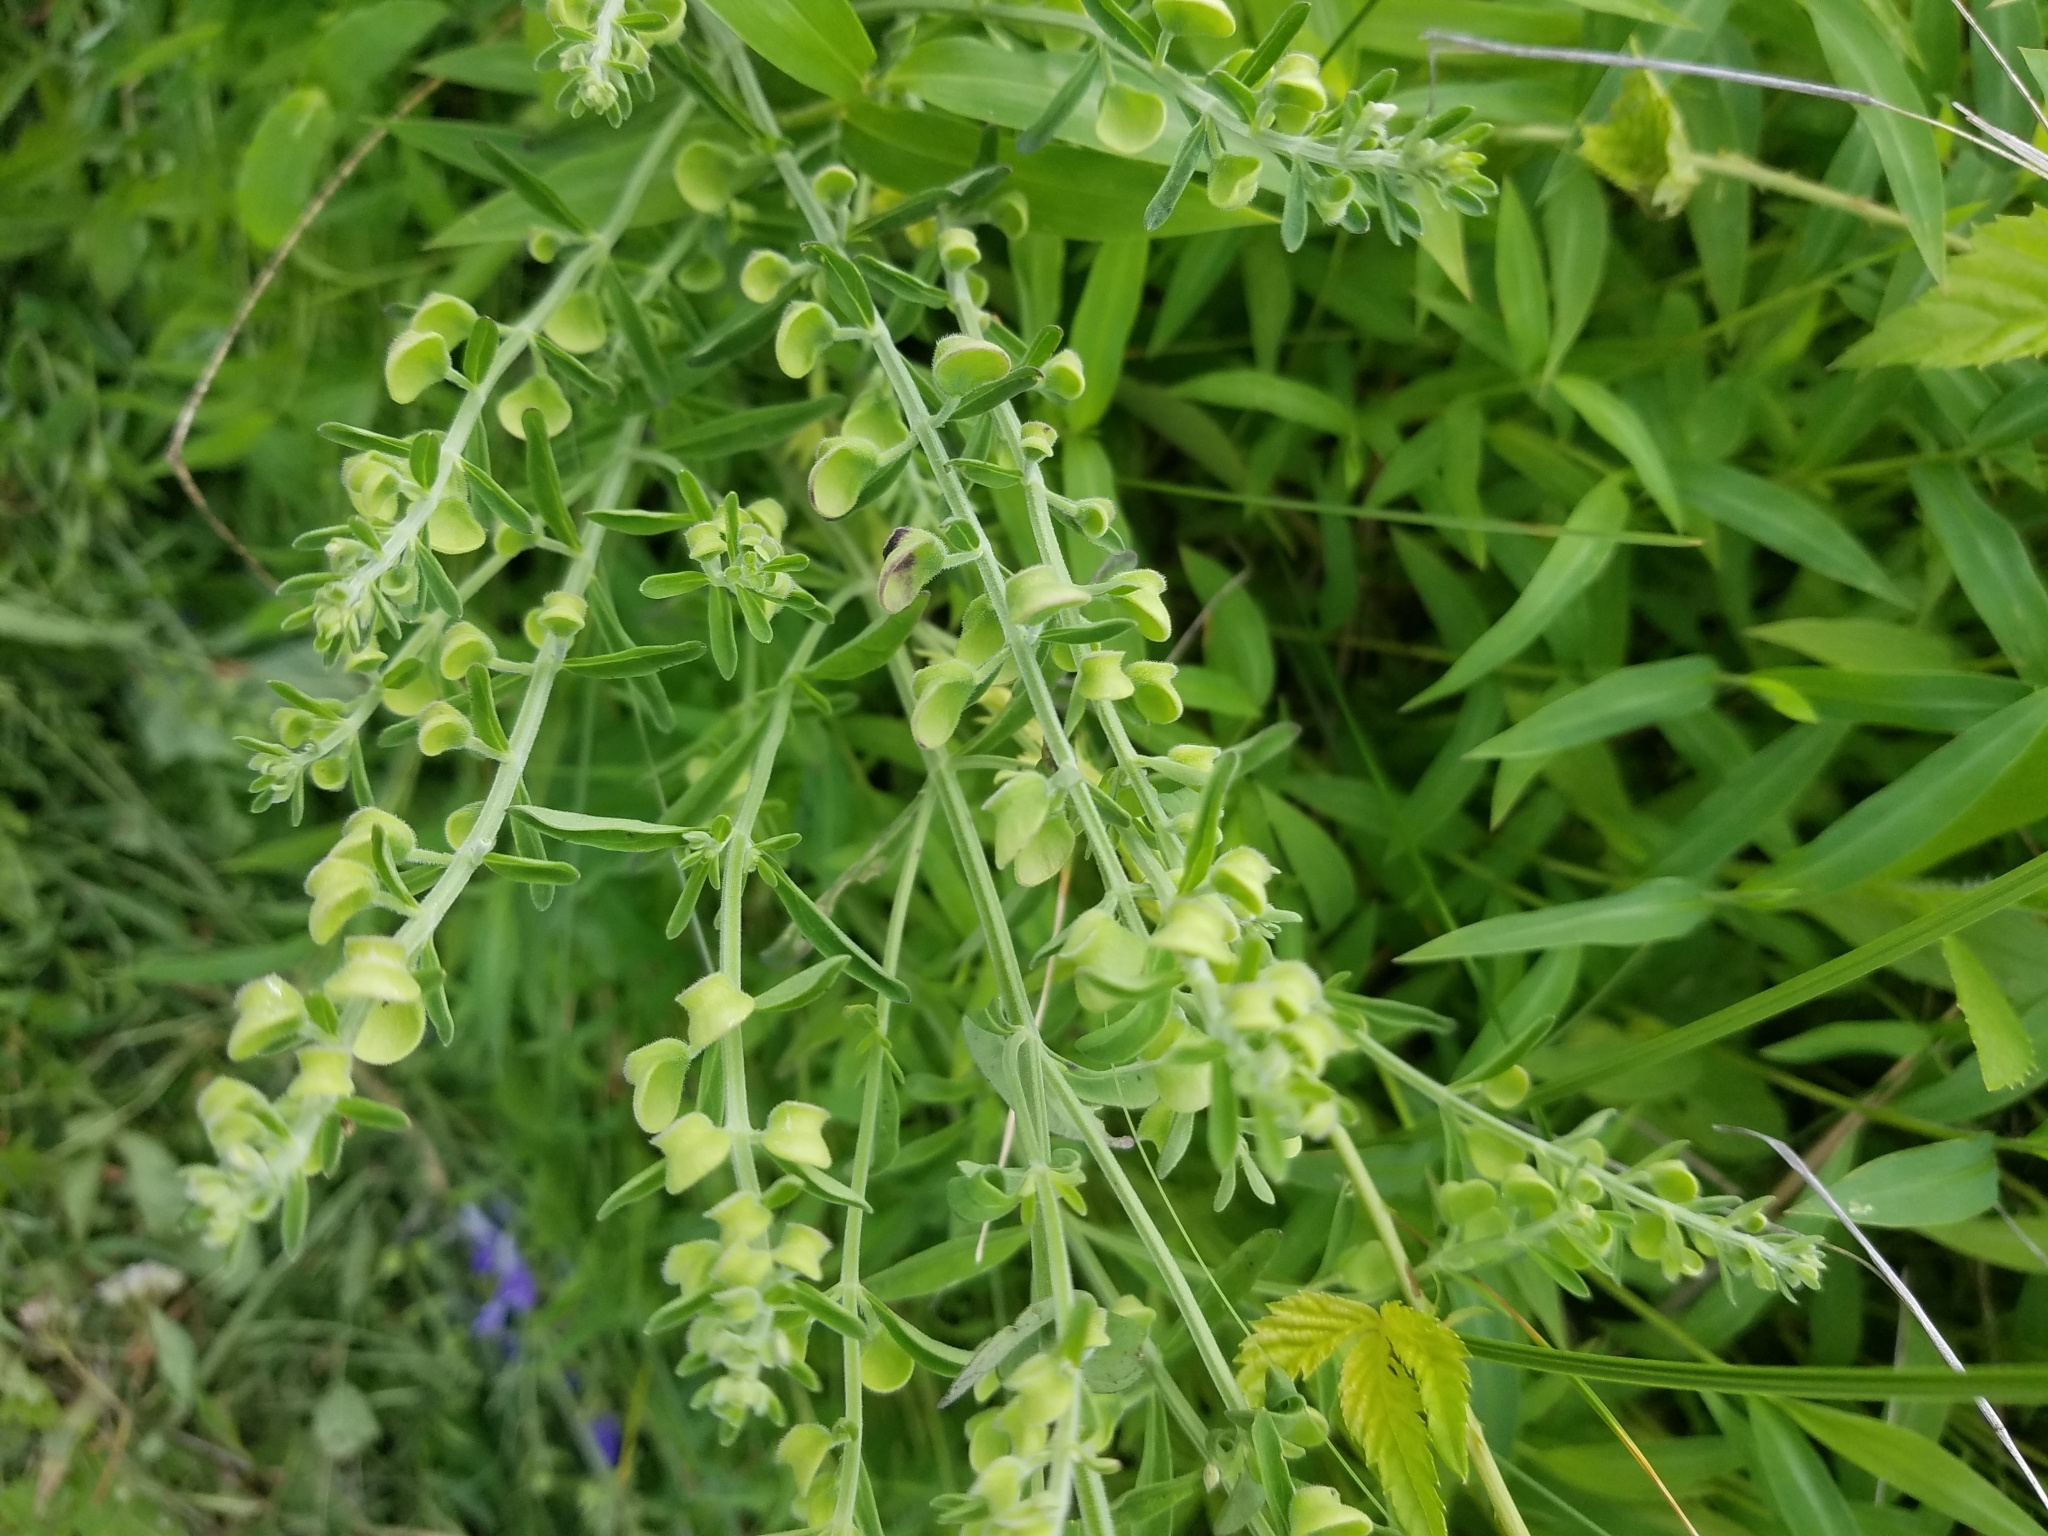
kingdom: Plantae
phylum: Tracheophyta
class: Magnoliopsida
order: Lamiales
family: Lamiaceae
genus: Scutellaria
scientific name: Scutellaria integrifolia
